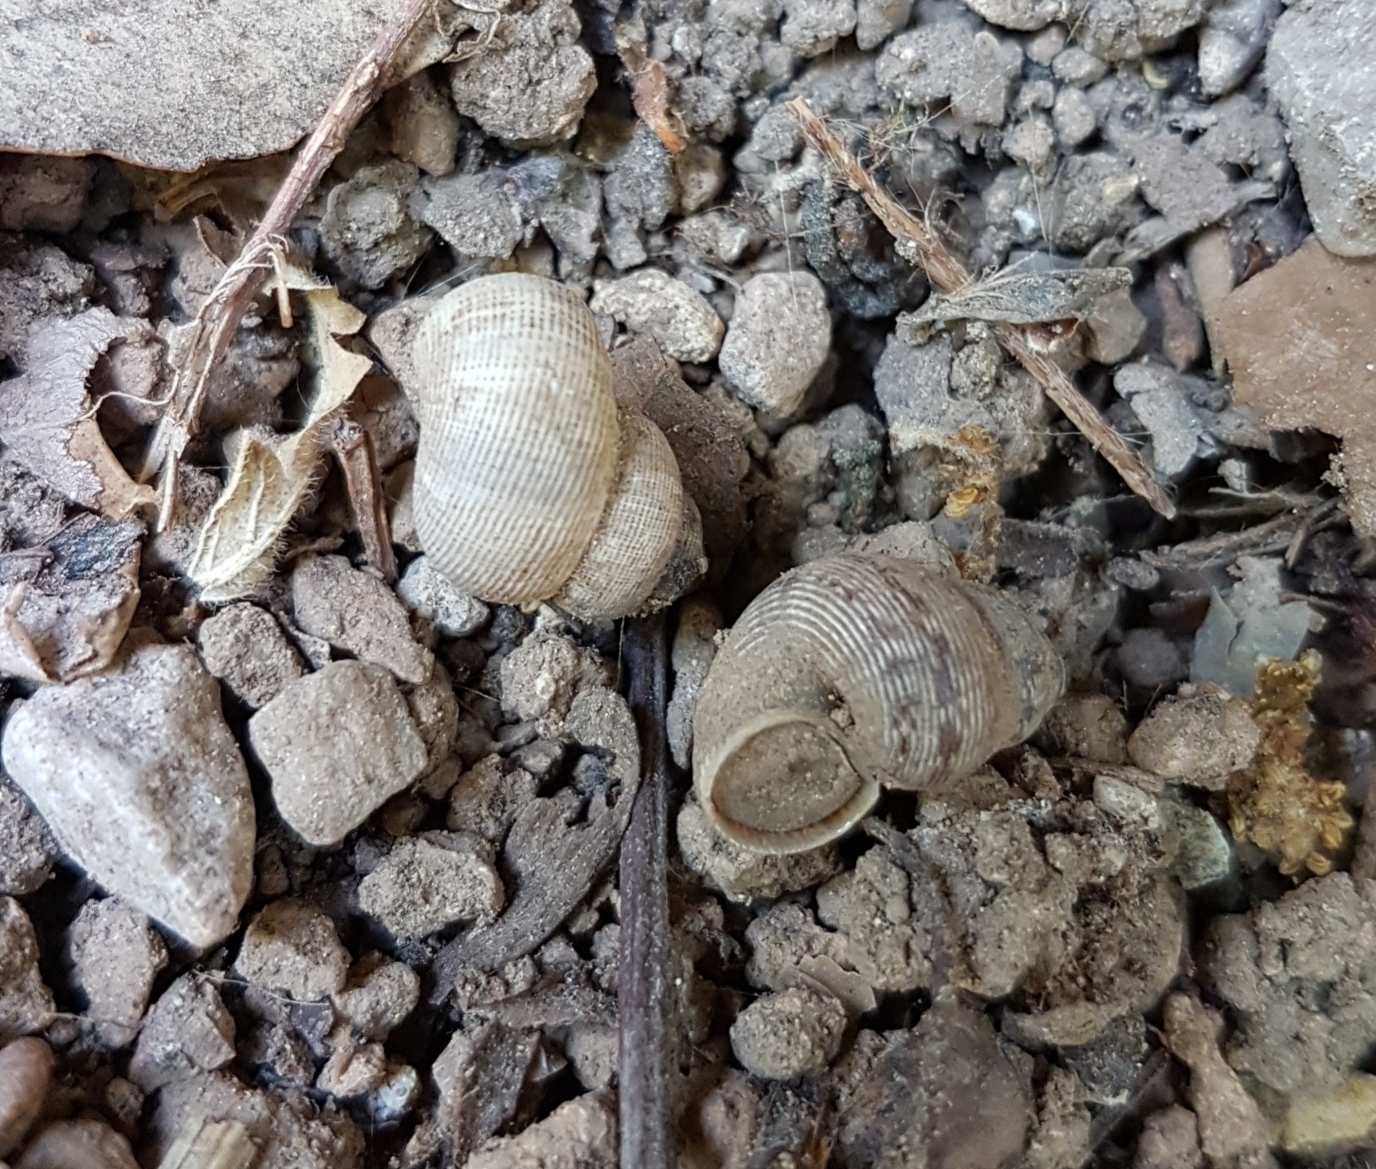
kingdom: Animalia
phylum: Mollusca
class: Gastropoda
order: Littorinimorpha
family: Pomatiidae
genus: Pomatias
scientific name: Pomatias elegans
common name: Red-mouthed snail
